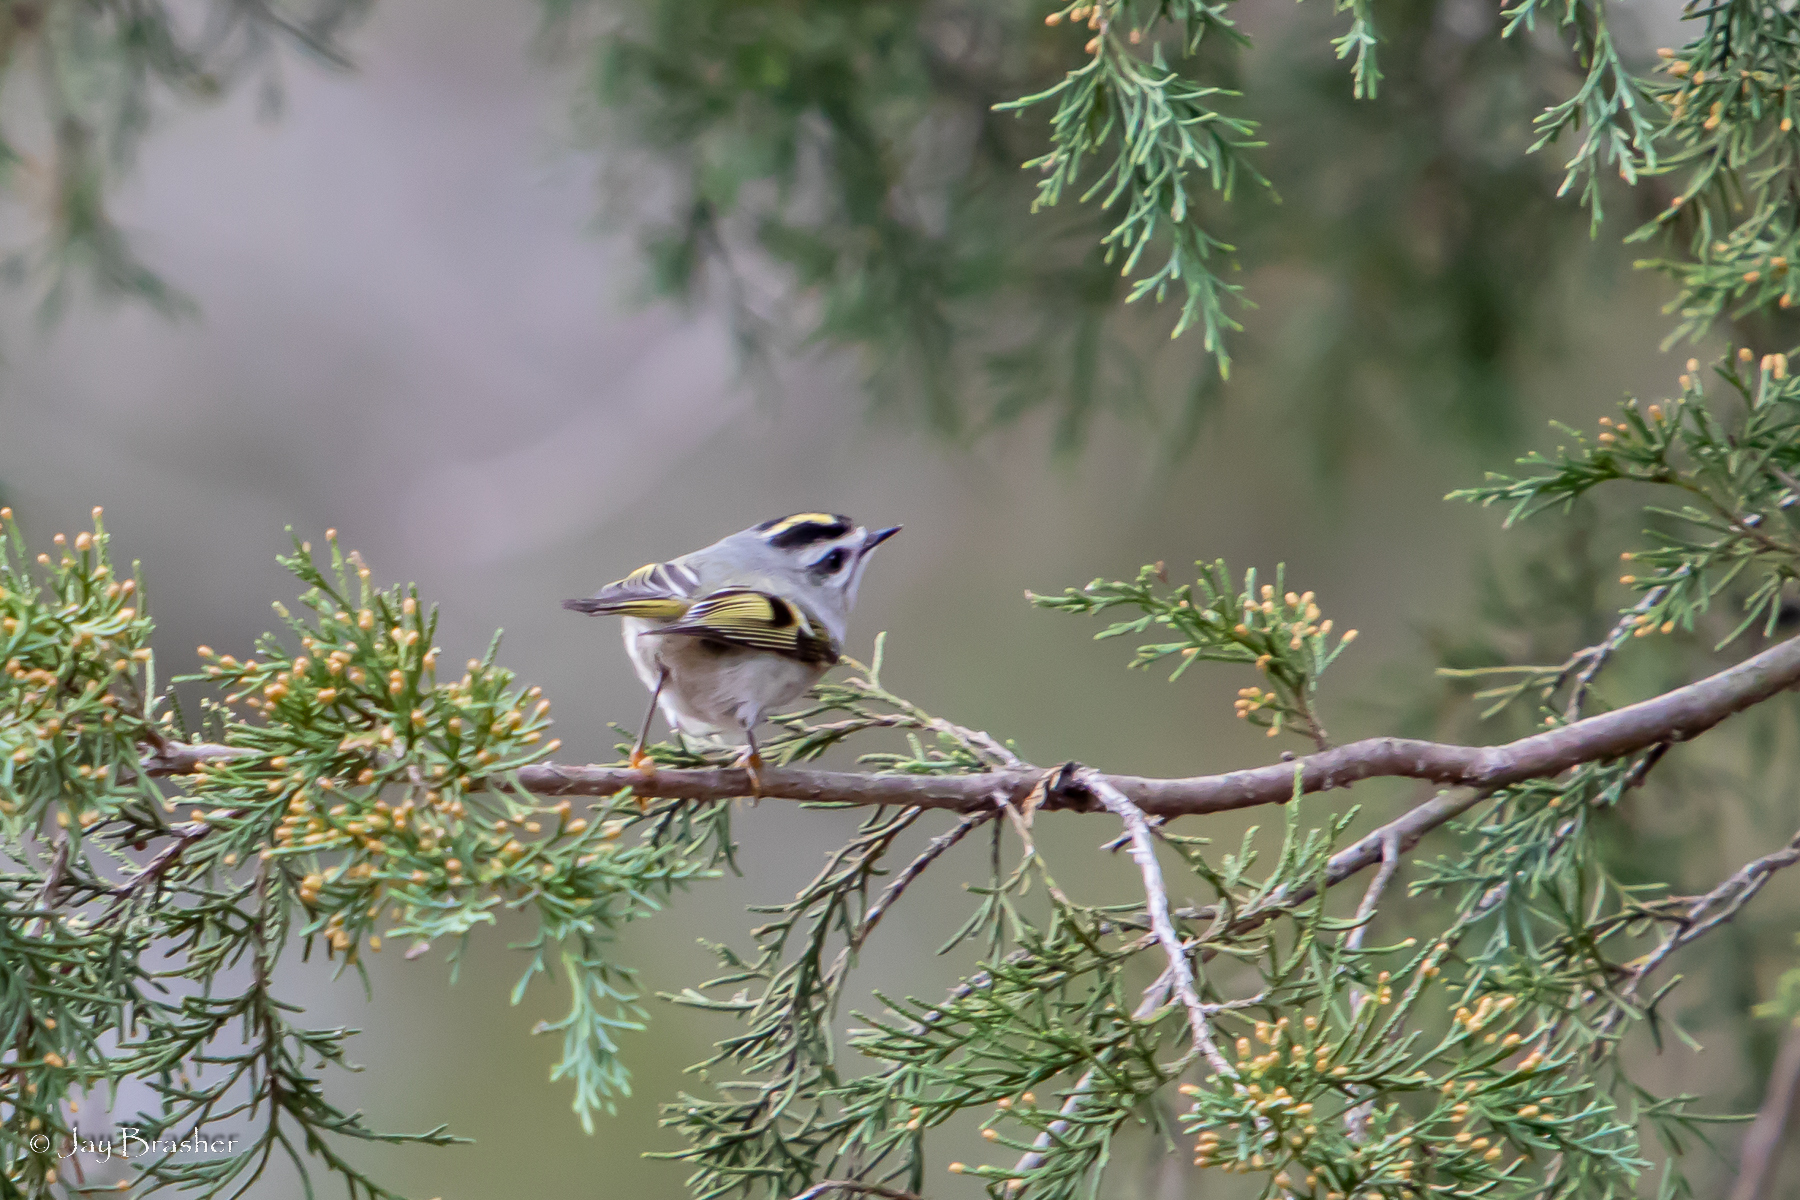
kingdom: Animalia
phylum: Chordata
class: Aves
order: Passeriformes
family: Regulidae
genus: Regulus
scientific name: Regulus satrapa
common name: Golden-crowned kinglet
